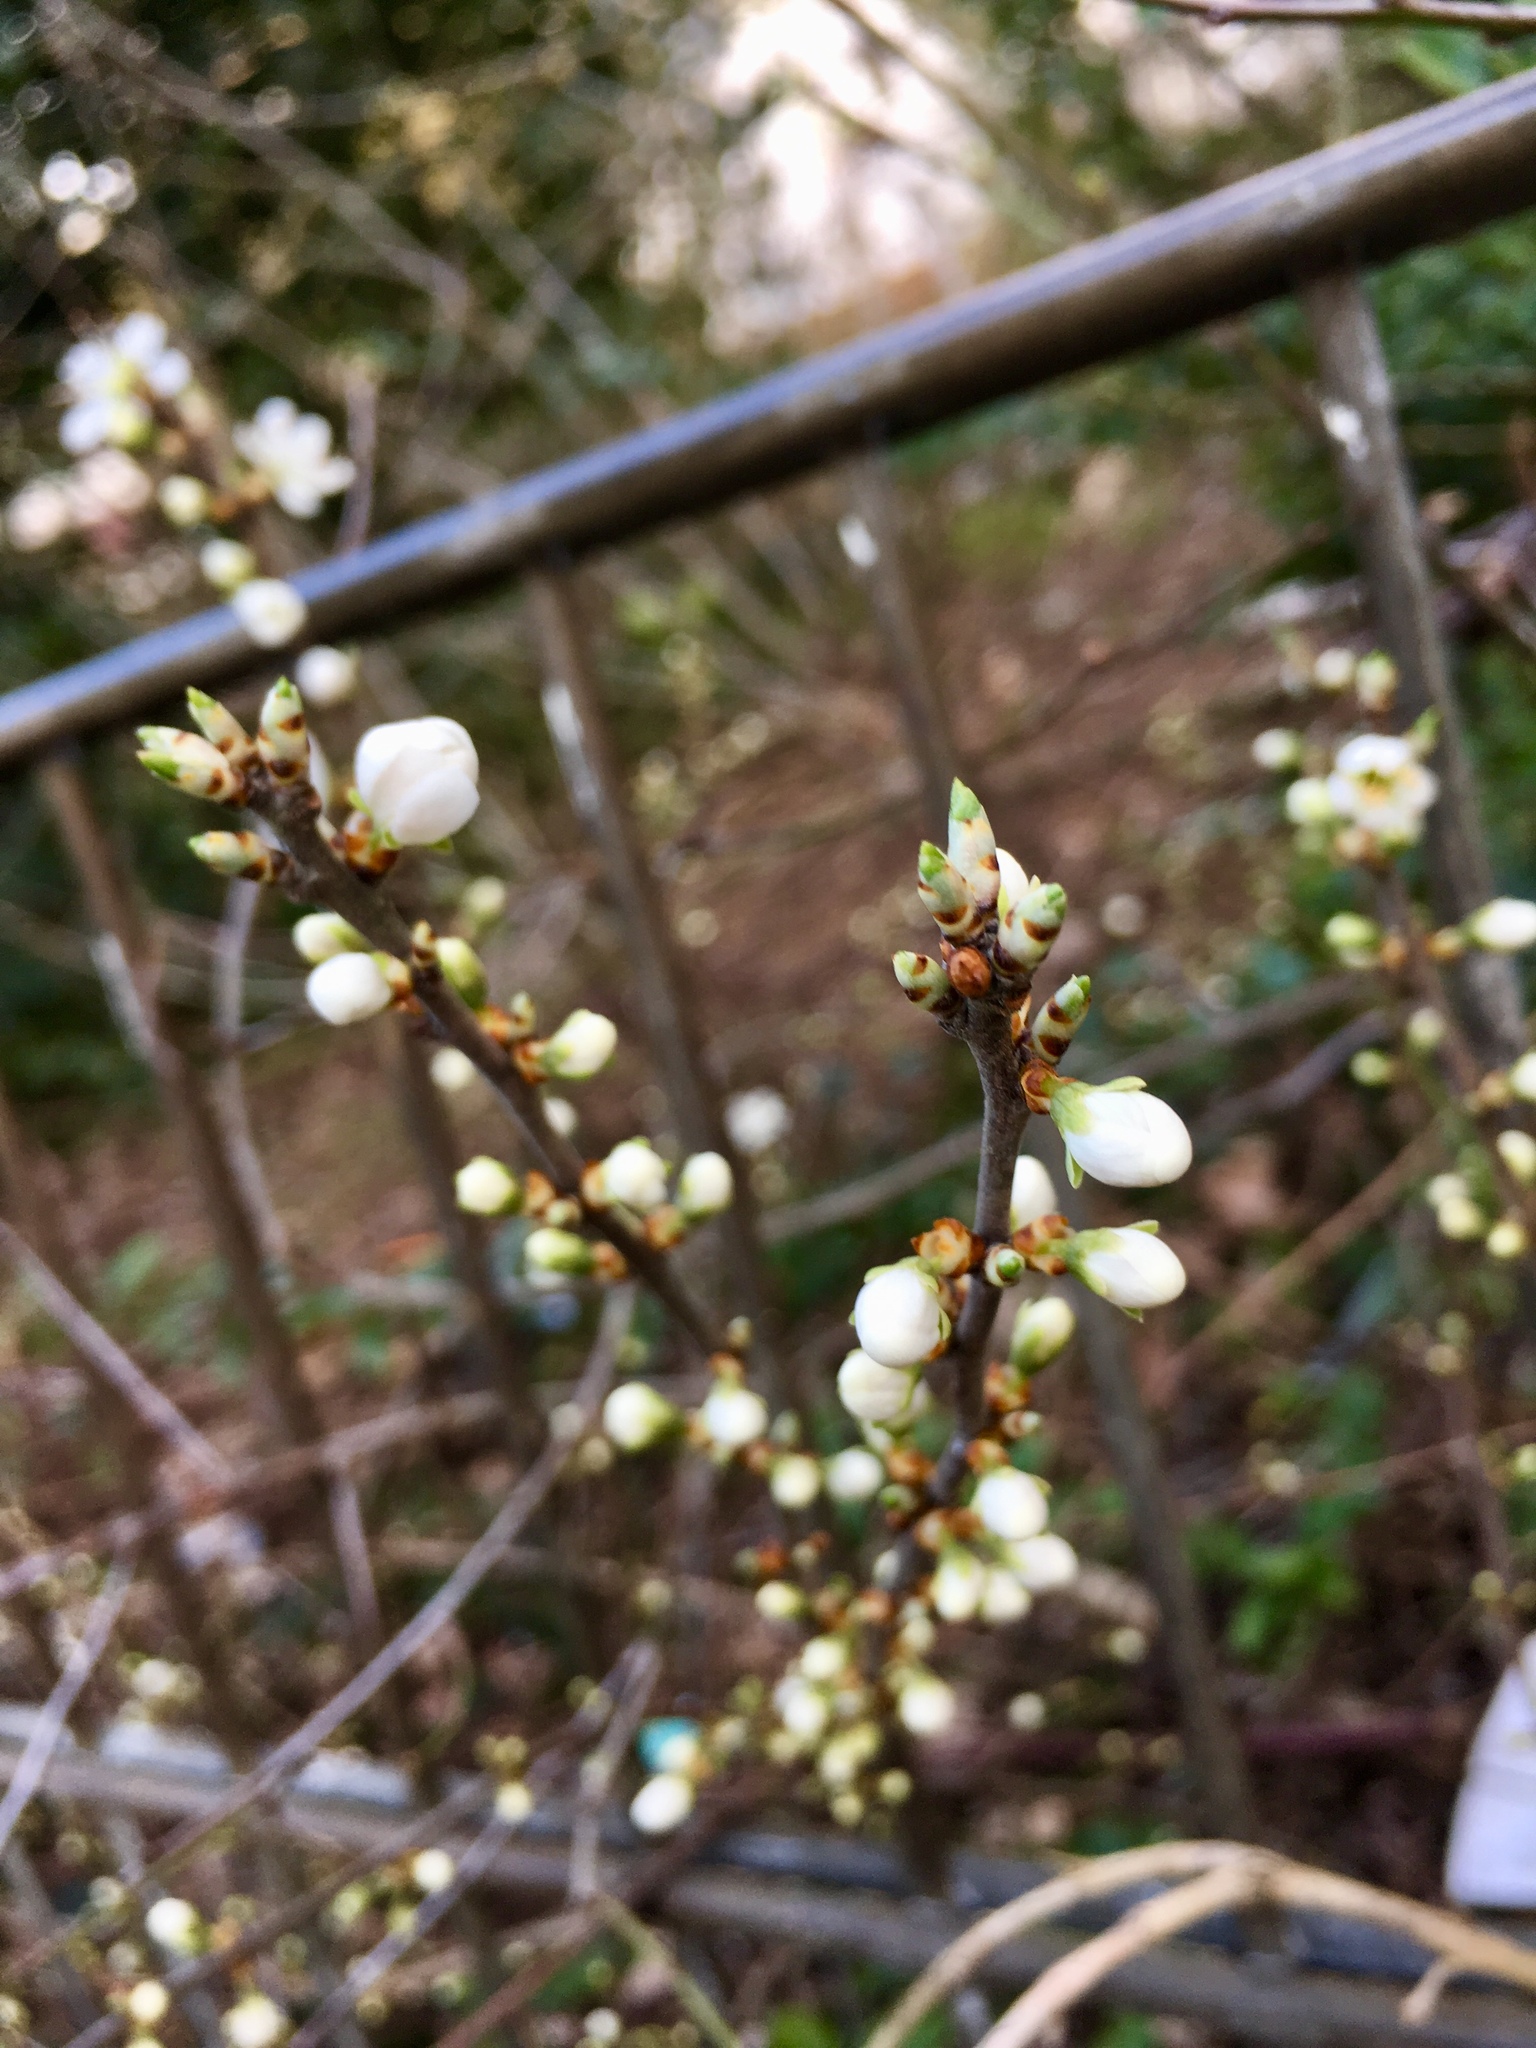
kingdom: Plantae
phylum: Tracheophyta
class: Magnoliopsida
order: Rosales
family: Rosaceae
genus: Prunus
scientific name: Prunus spinosa
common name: Blackthorn
